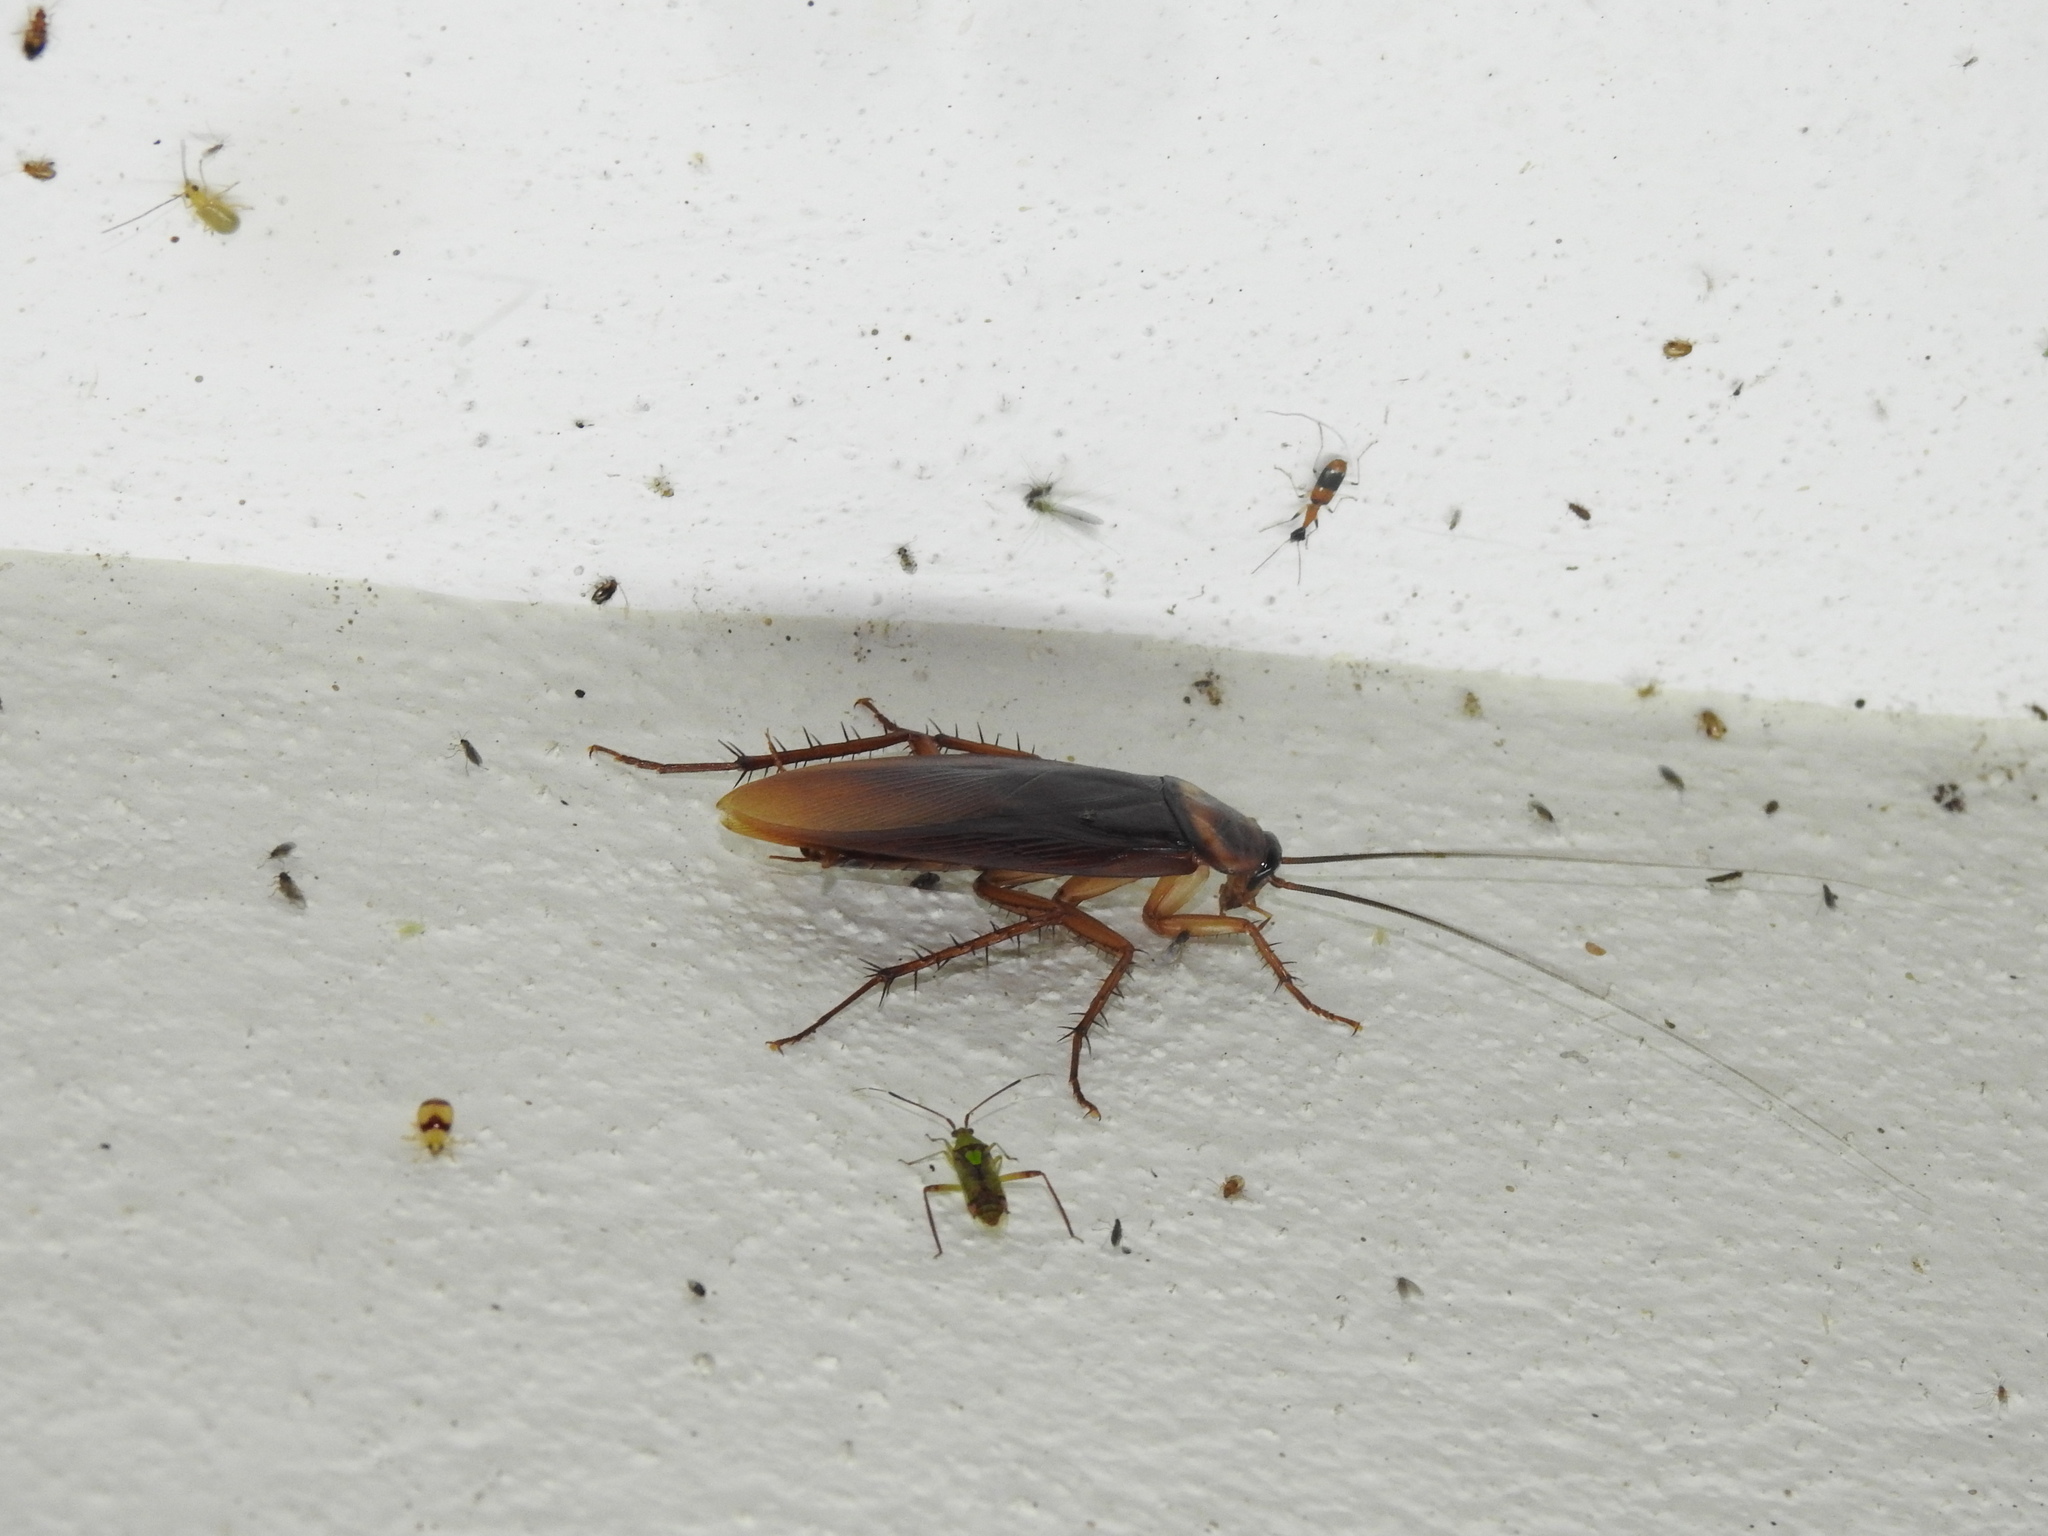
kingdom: Animalia
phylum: Arthropoda
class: Insecta
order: Blattodea
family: Blattidae
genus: Periplaneta
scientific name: Periplaneta americana
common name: American cockroach
